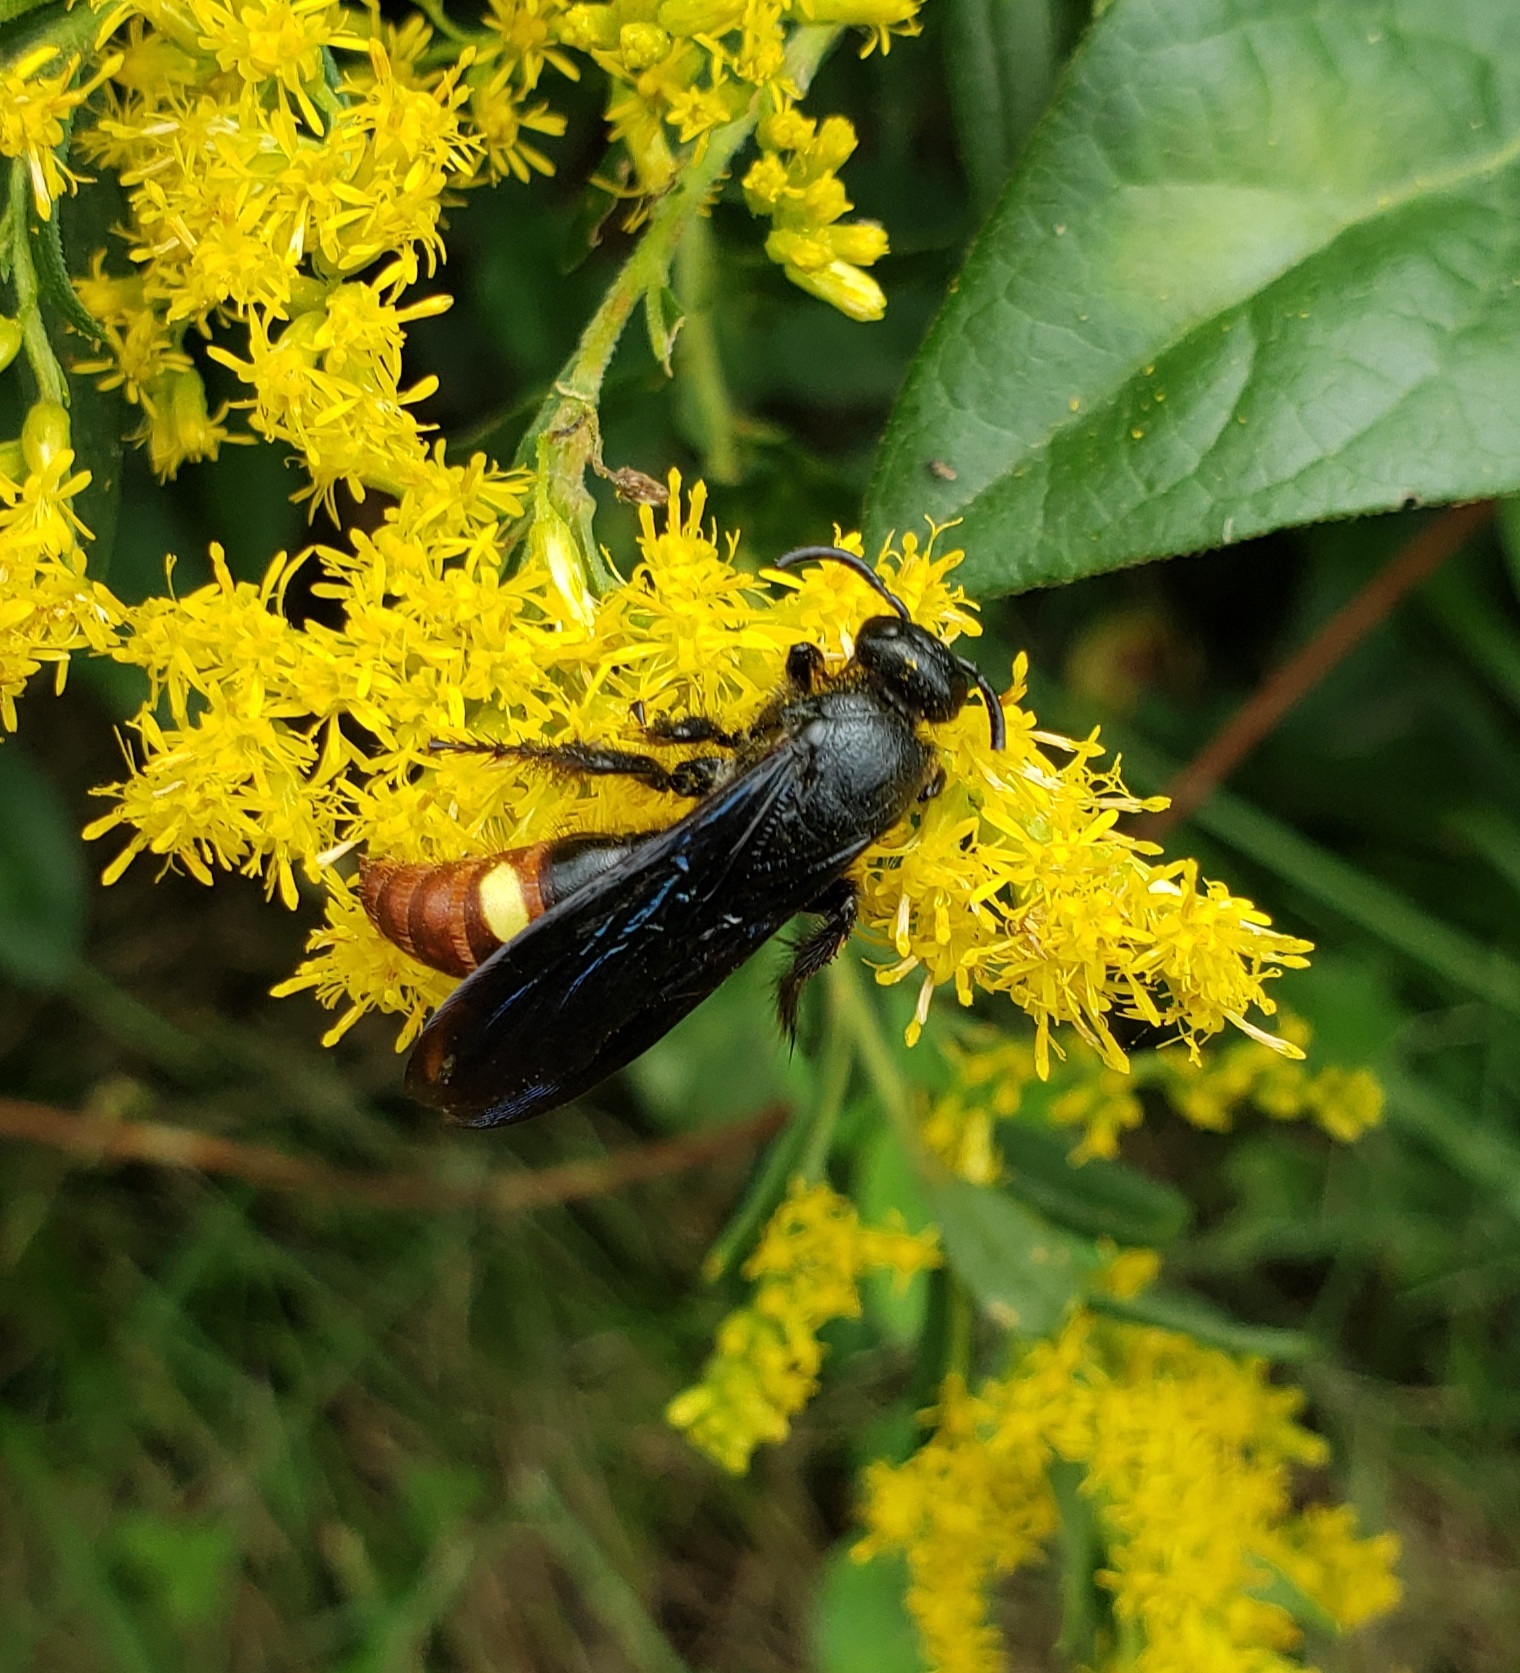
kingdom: Animalia
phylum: Arthropoda
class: Insecta
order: Hymenoptera
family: Scoliidae
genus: Scolia
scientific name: Scolia dubia
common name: Blue-winged scoliid wasp
